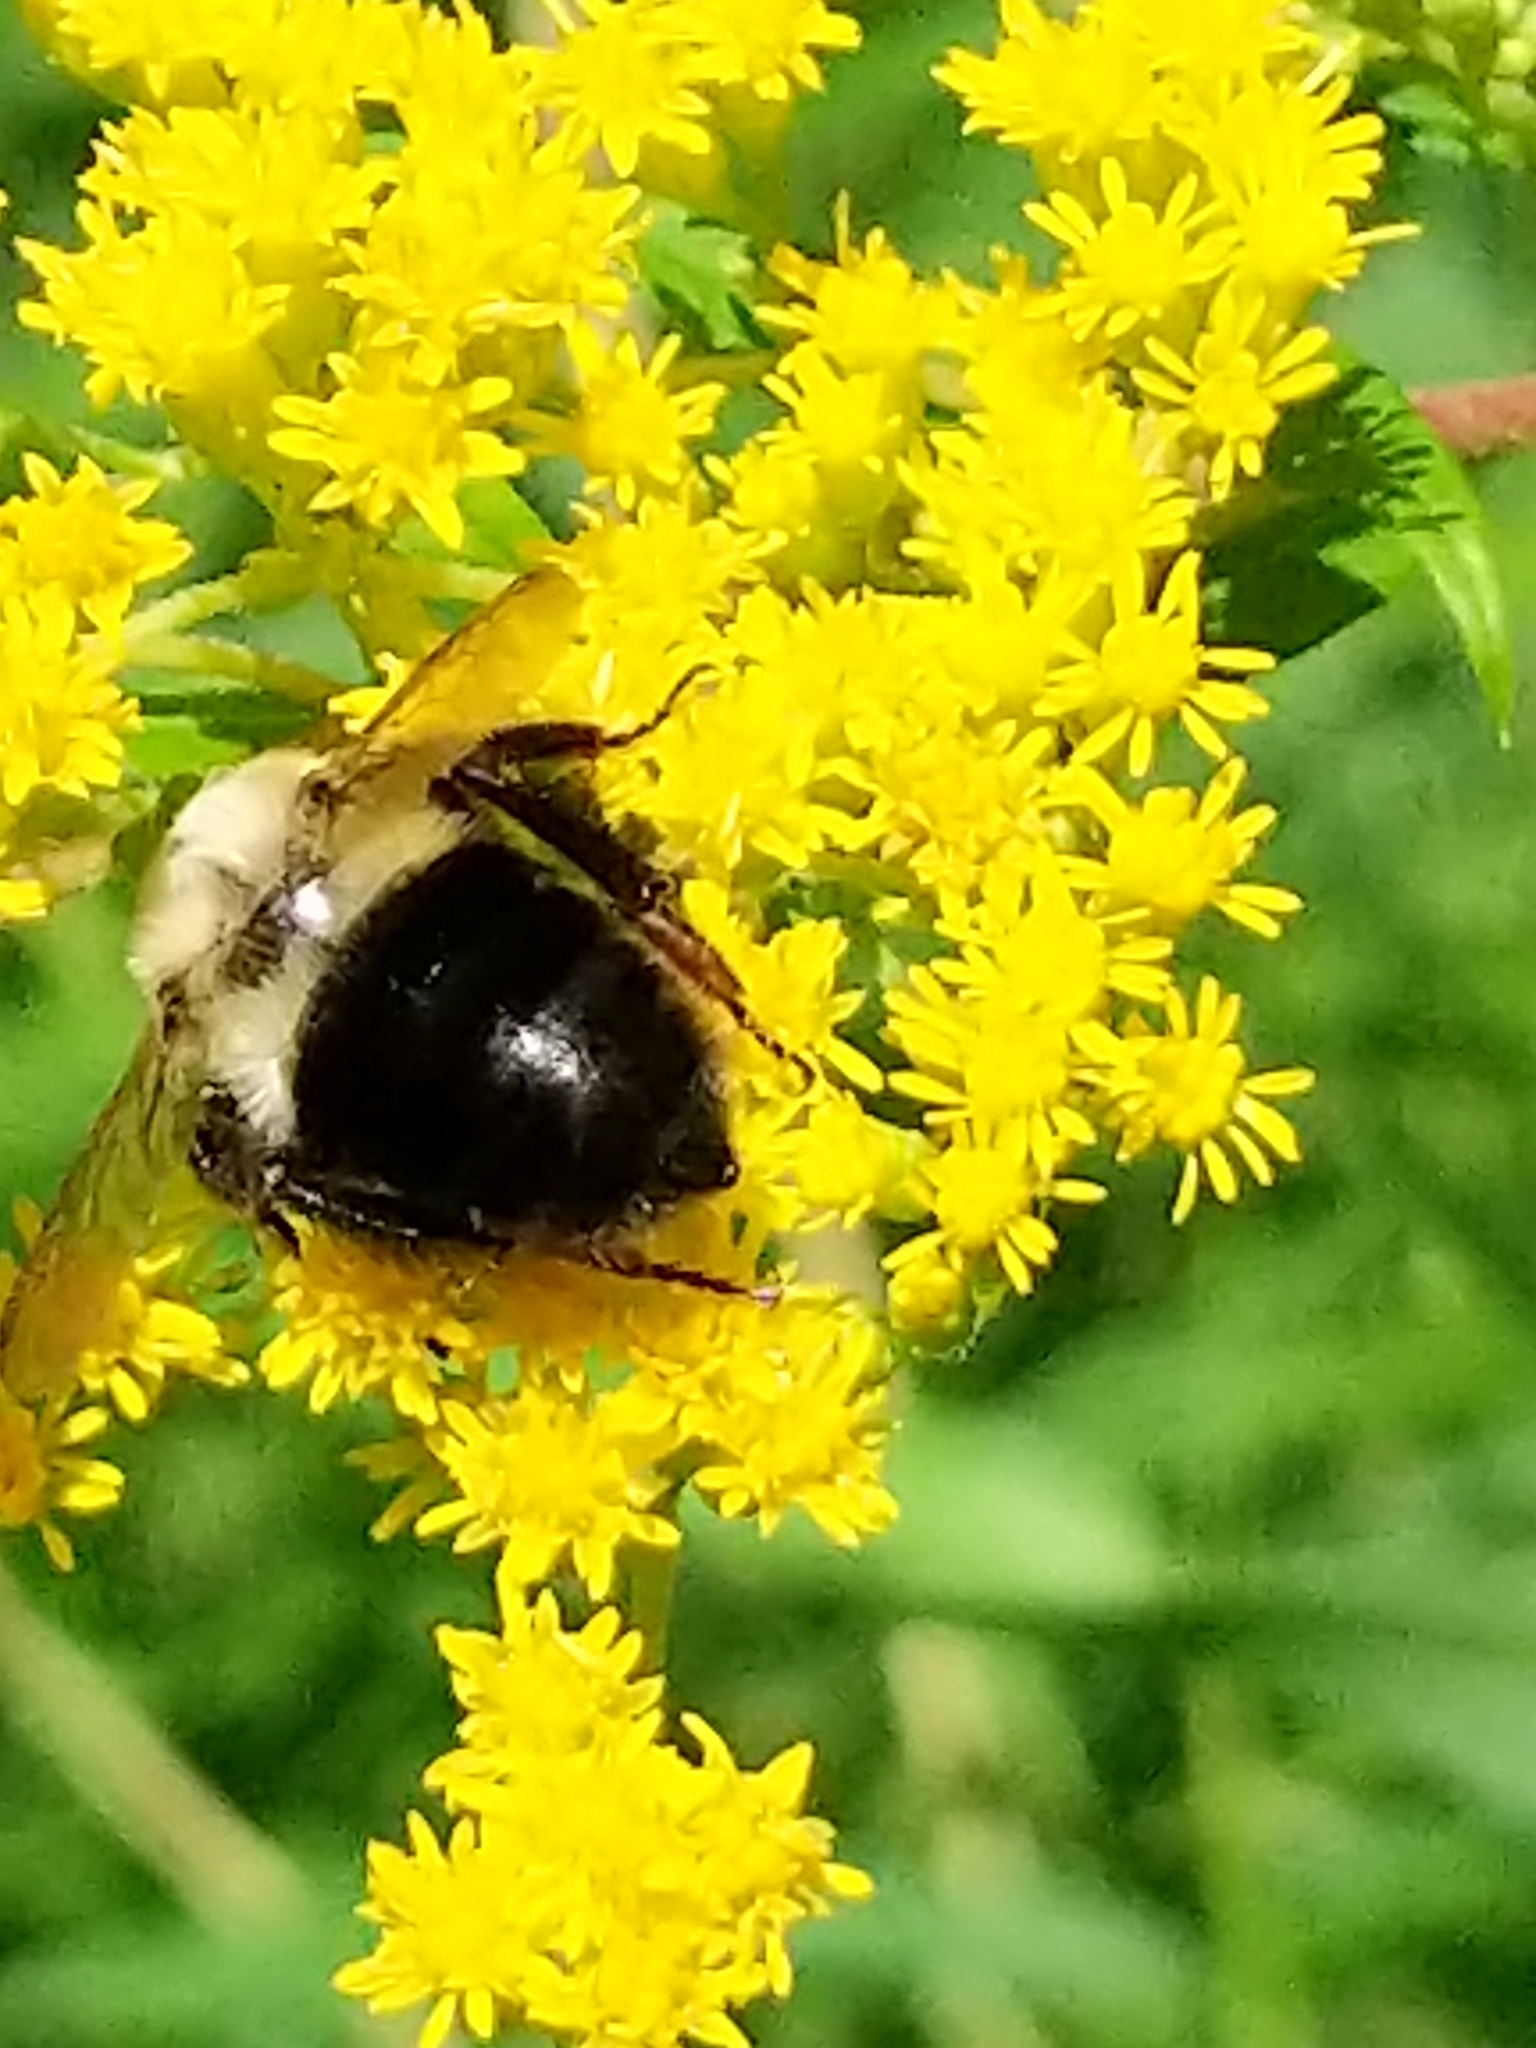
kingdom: Animalia
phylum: Arthropoda
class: Insecta
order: Hymenoptera
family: Apidae
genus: Bombus
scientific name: Bombus impatiens
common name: Common eastern bumble bee
